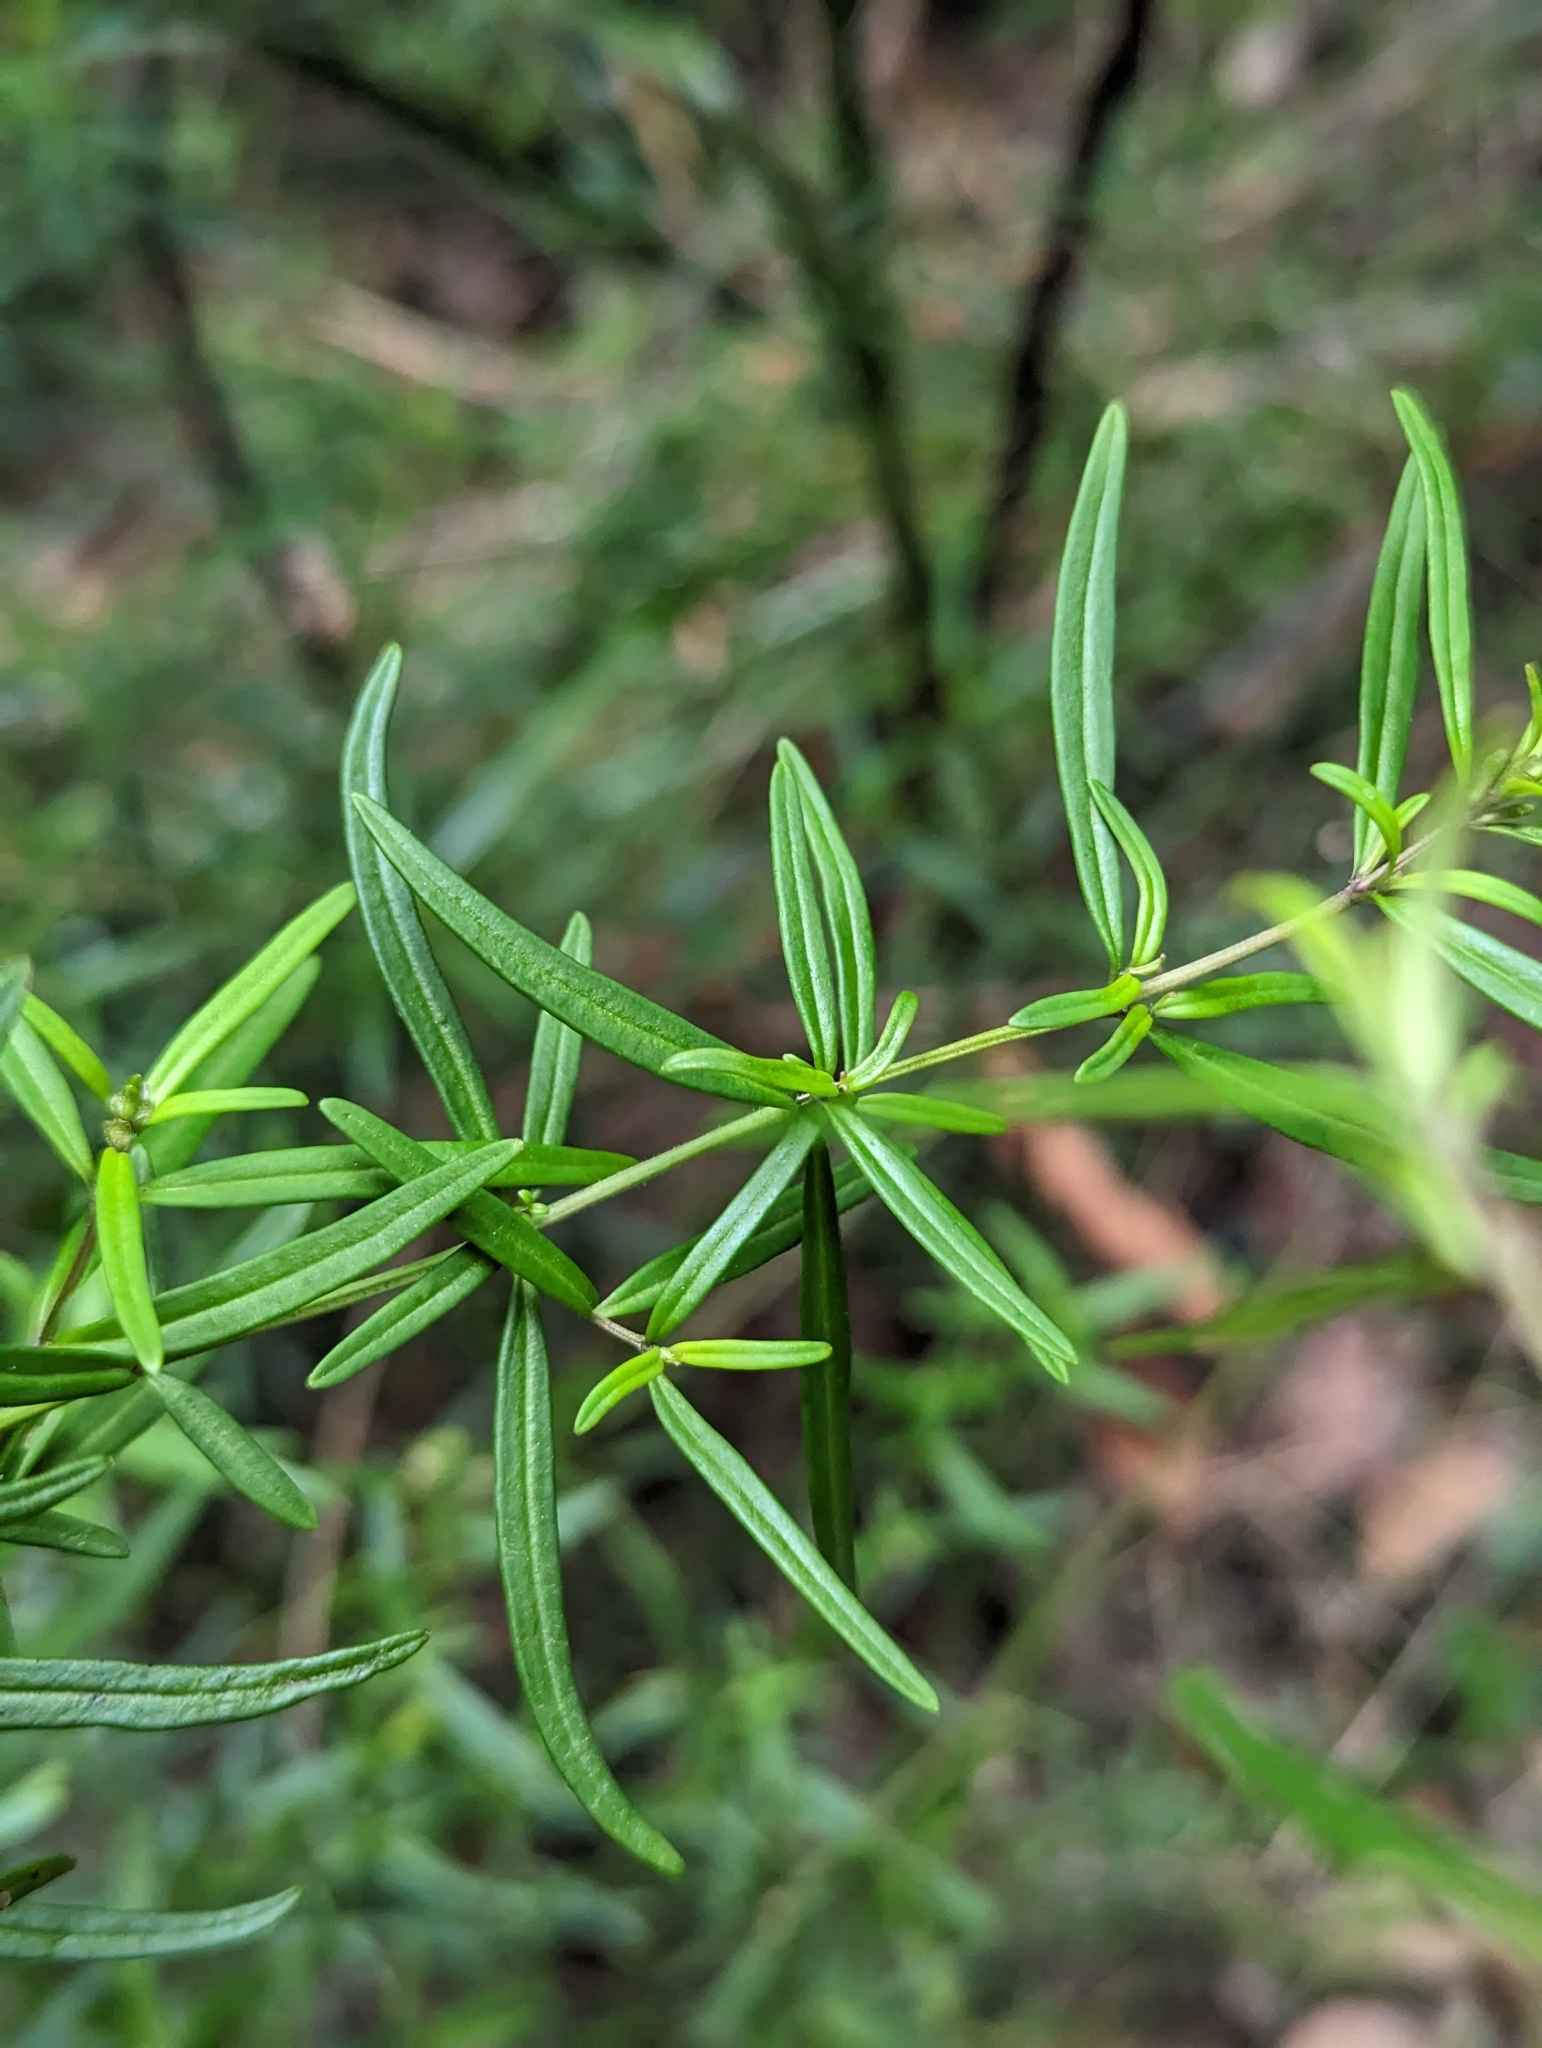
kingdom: Plantae
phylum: Tracheophyta
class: Magnoliopsida
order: Lamiales
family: Lamiaceae
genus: Prostanthera
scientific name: Prostanthera linearis
